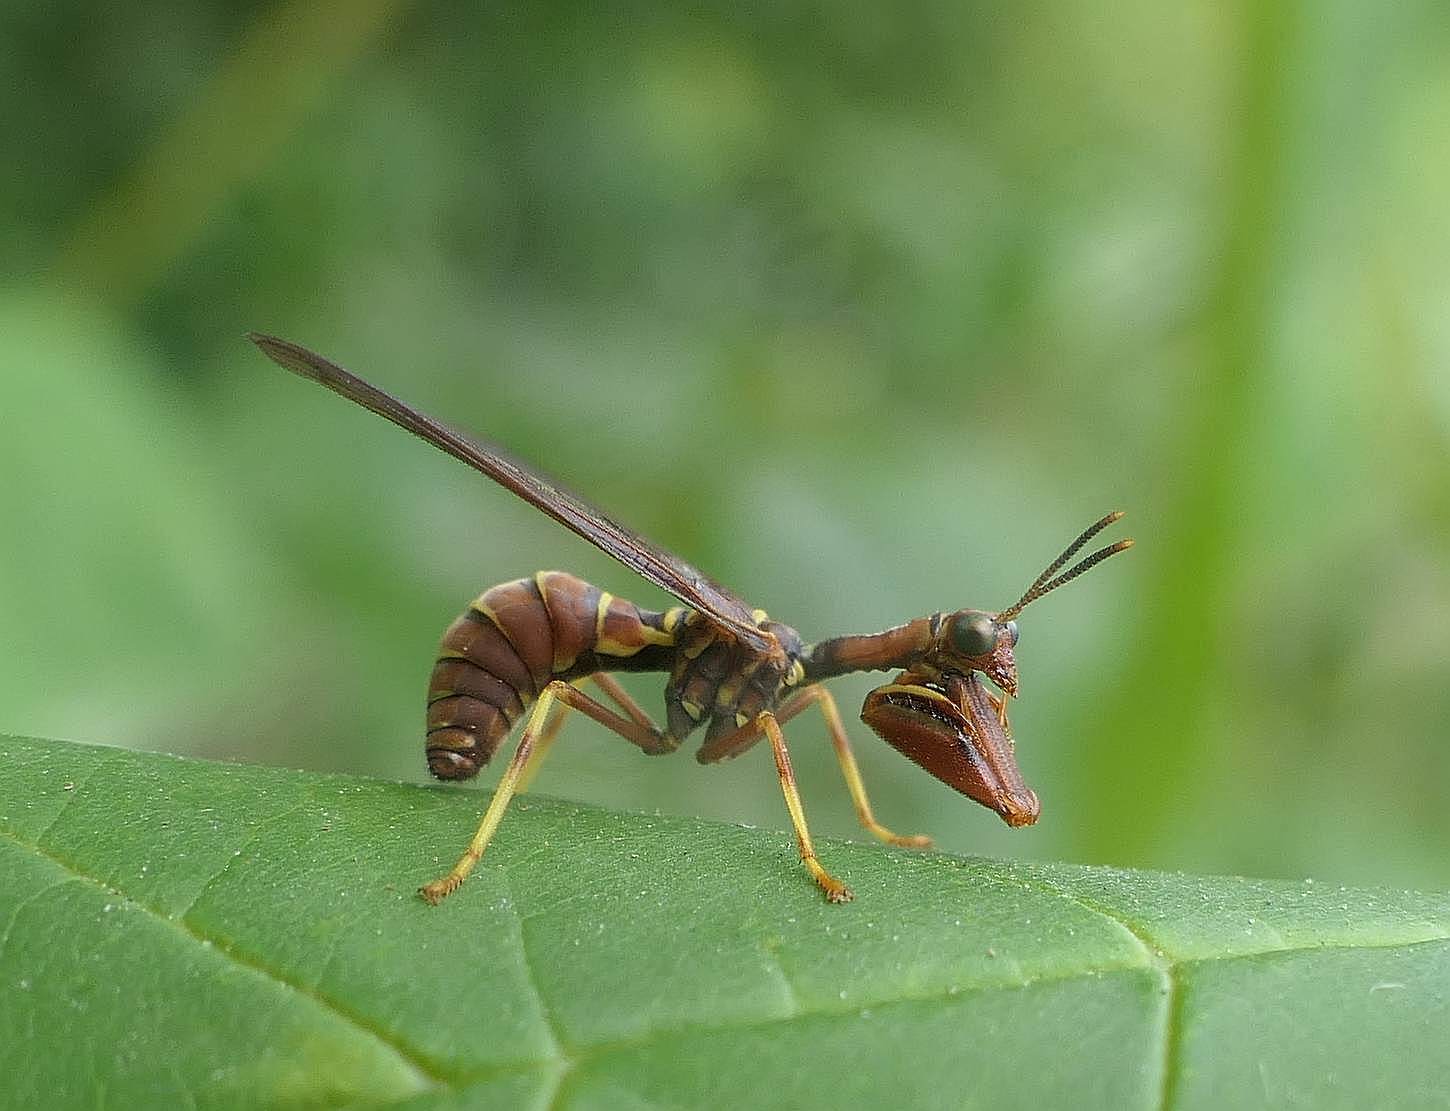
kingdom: Animalia
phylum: Arthropoda
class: Insecta
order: Neuroptera
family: Mantispidae
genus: Climaciella
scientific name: Climaciella brunnea
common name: Brown wasp mantidfly
